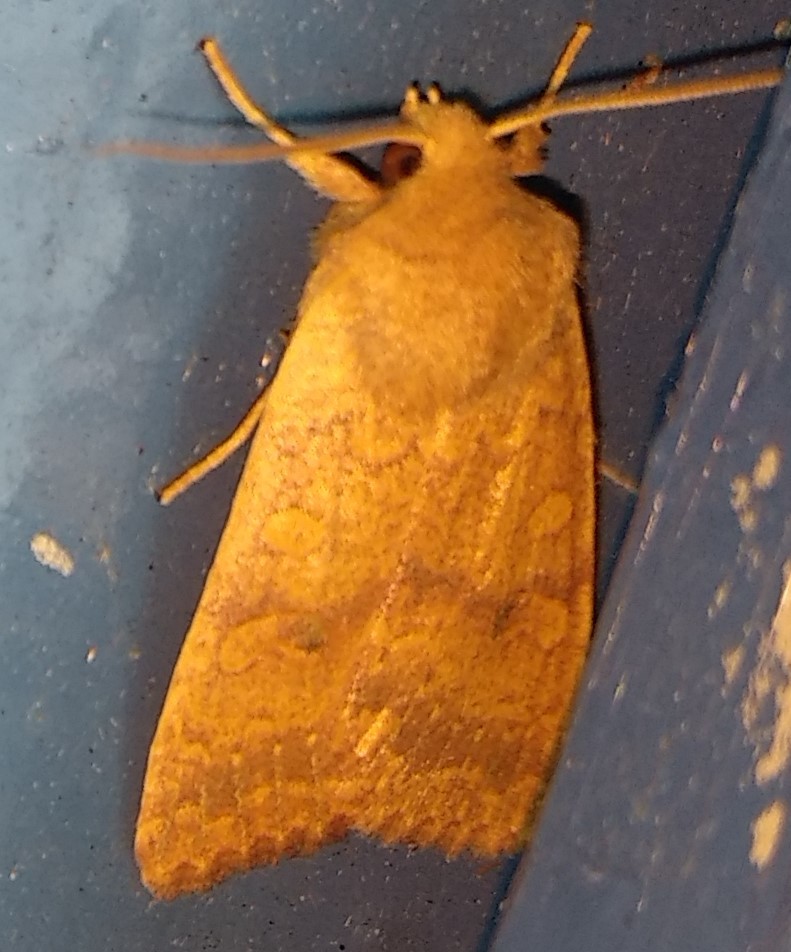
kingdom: Animalia
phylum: Arthropoda
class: Insecta
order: Lepidoptera
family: Noctuidae
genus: Agrochola
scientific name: Agrochola bicolorago
